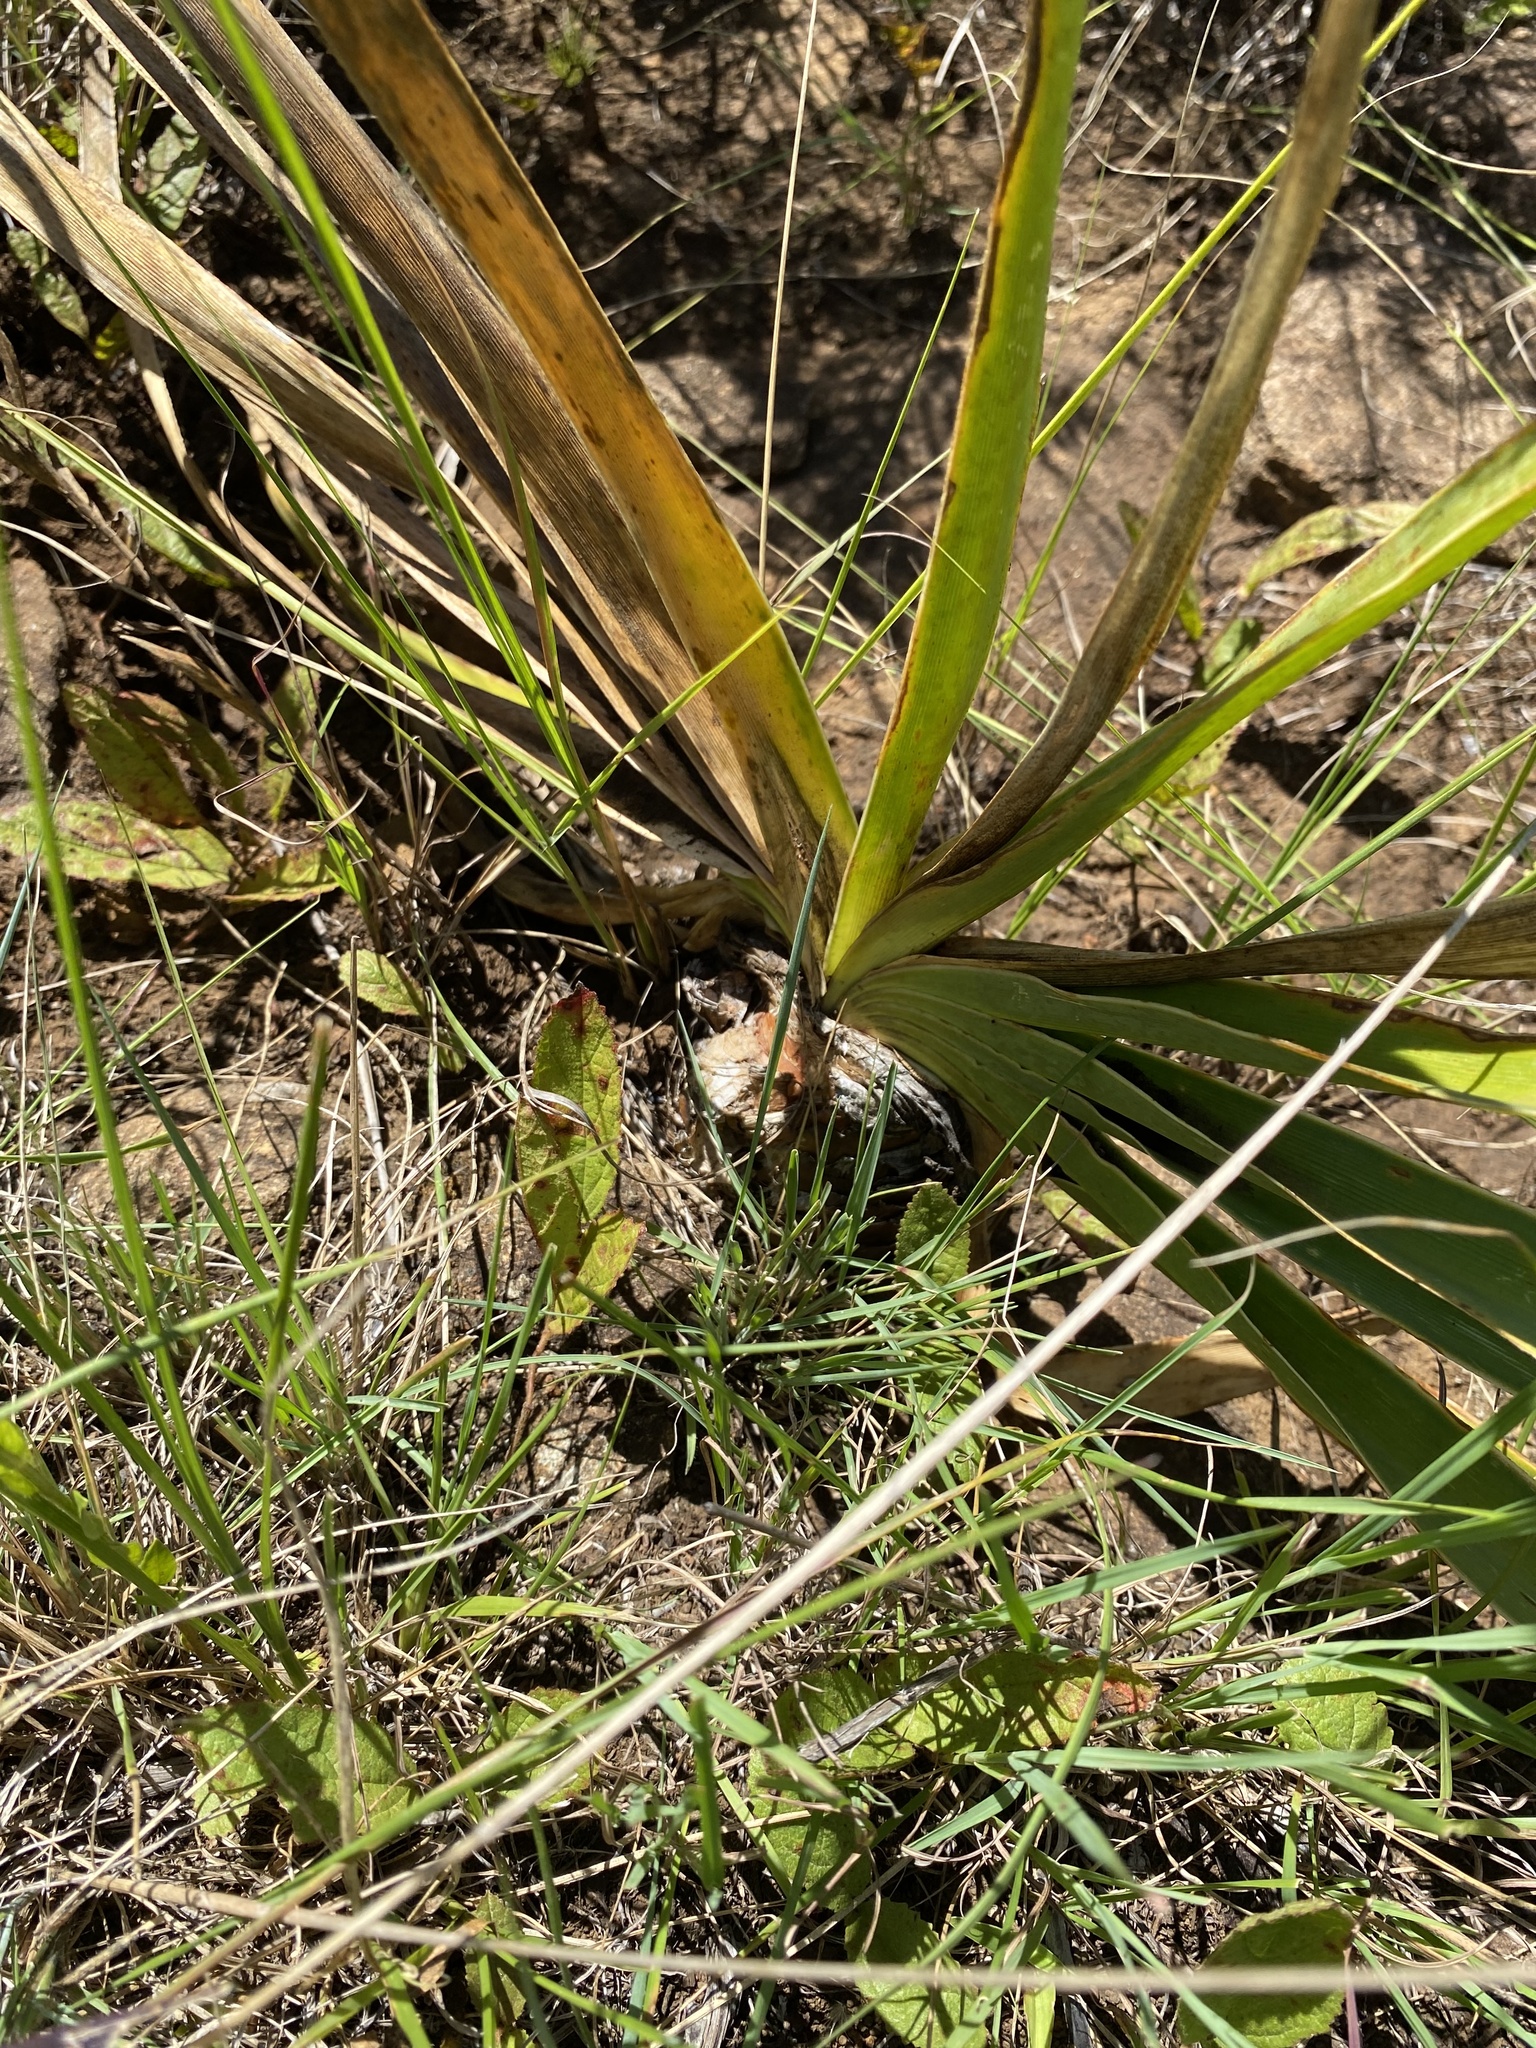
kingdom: Plantae
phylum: Tracheophyta
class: Liliopsida
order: Asparagales
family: Amaryllidaceae
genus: Boophone
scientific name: Boophone disticha
